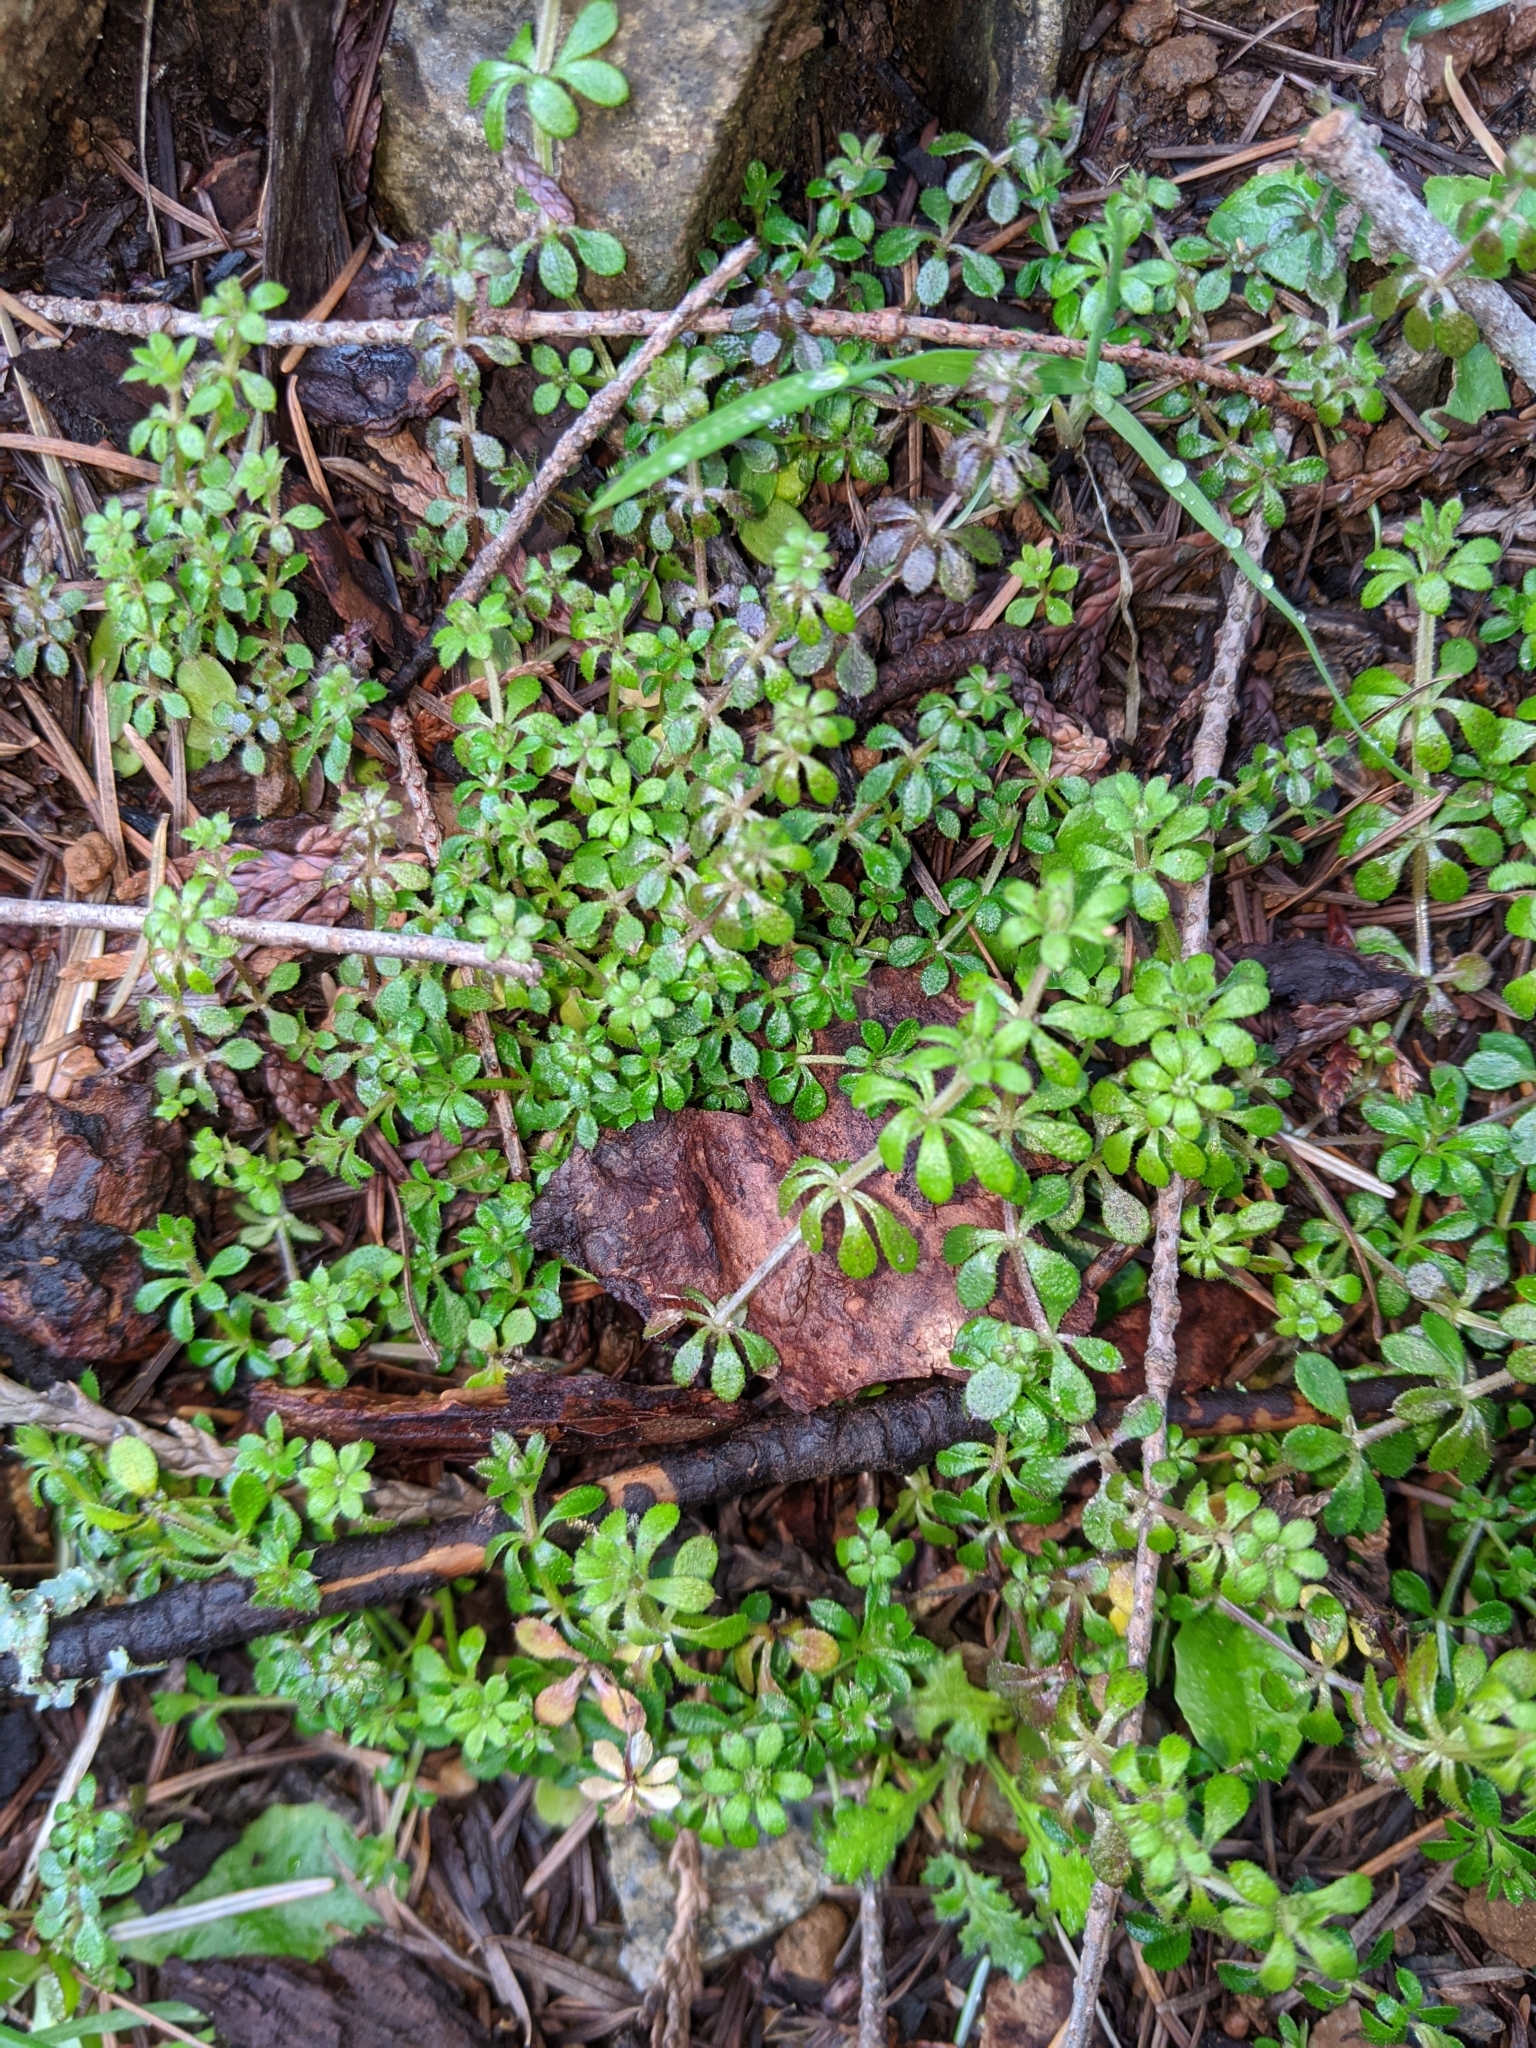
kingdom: Plantae
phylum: Tracheophyta
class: Magnoliopsida
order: Gentianales
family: Rubiaceae
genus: Galium
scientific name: Galium aparine
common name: Cleavers
